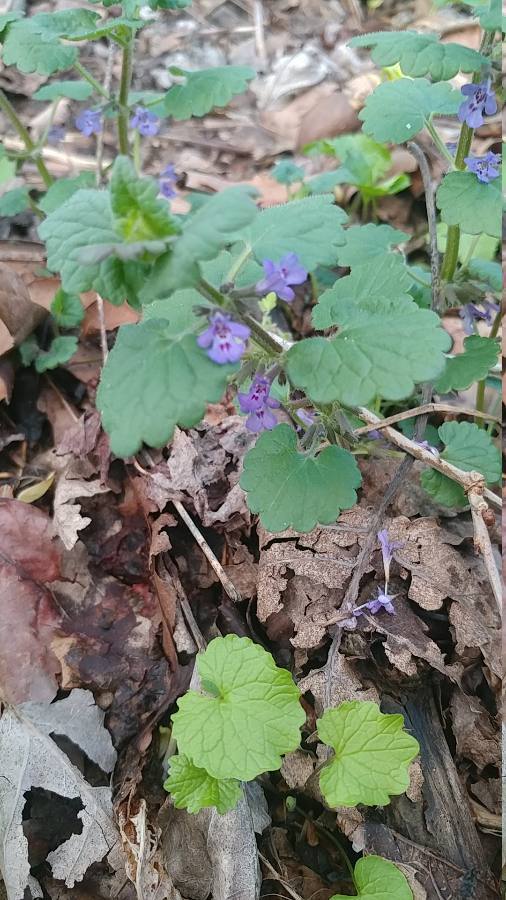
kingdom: Plantae
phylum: Tracheophyta
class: Magnoliopsida
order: Lamiales
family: Lamiaceae
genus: Glechoma
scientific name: Glechoma hederacea
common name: Ground ivy
